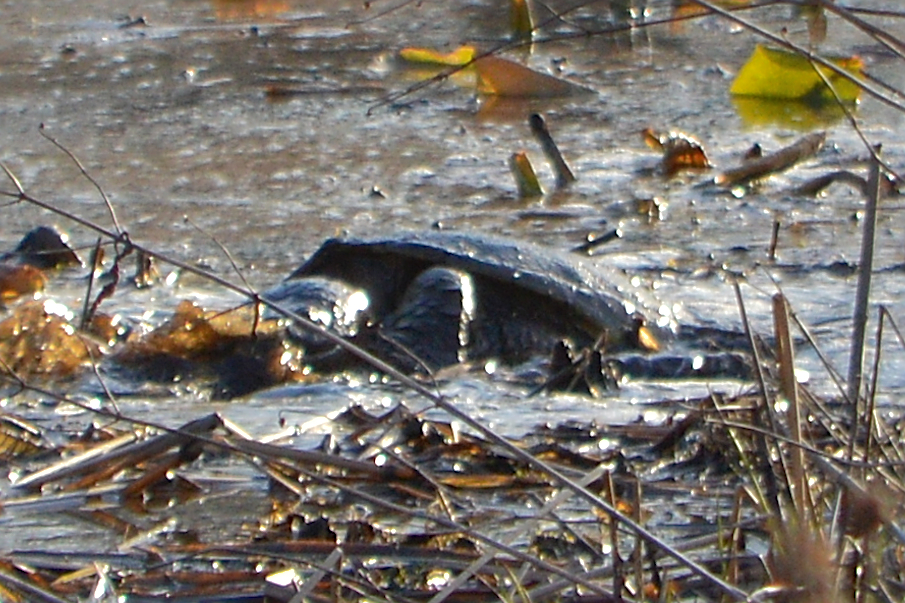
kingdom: Animalia
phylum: Chordata
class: Testudines
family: Chelydridae
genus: Chelydra
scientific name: Chelydra serpentina
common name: Common snapping turtle
